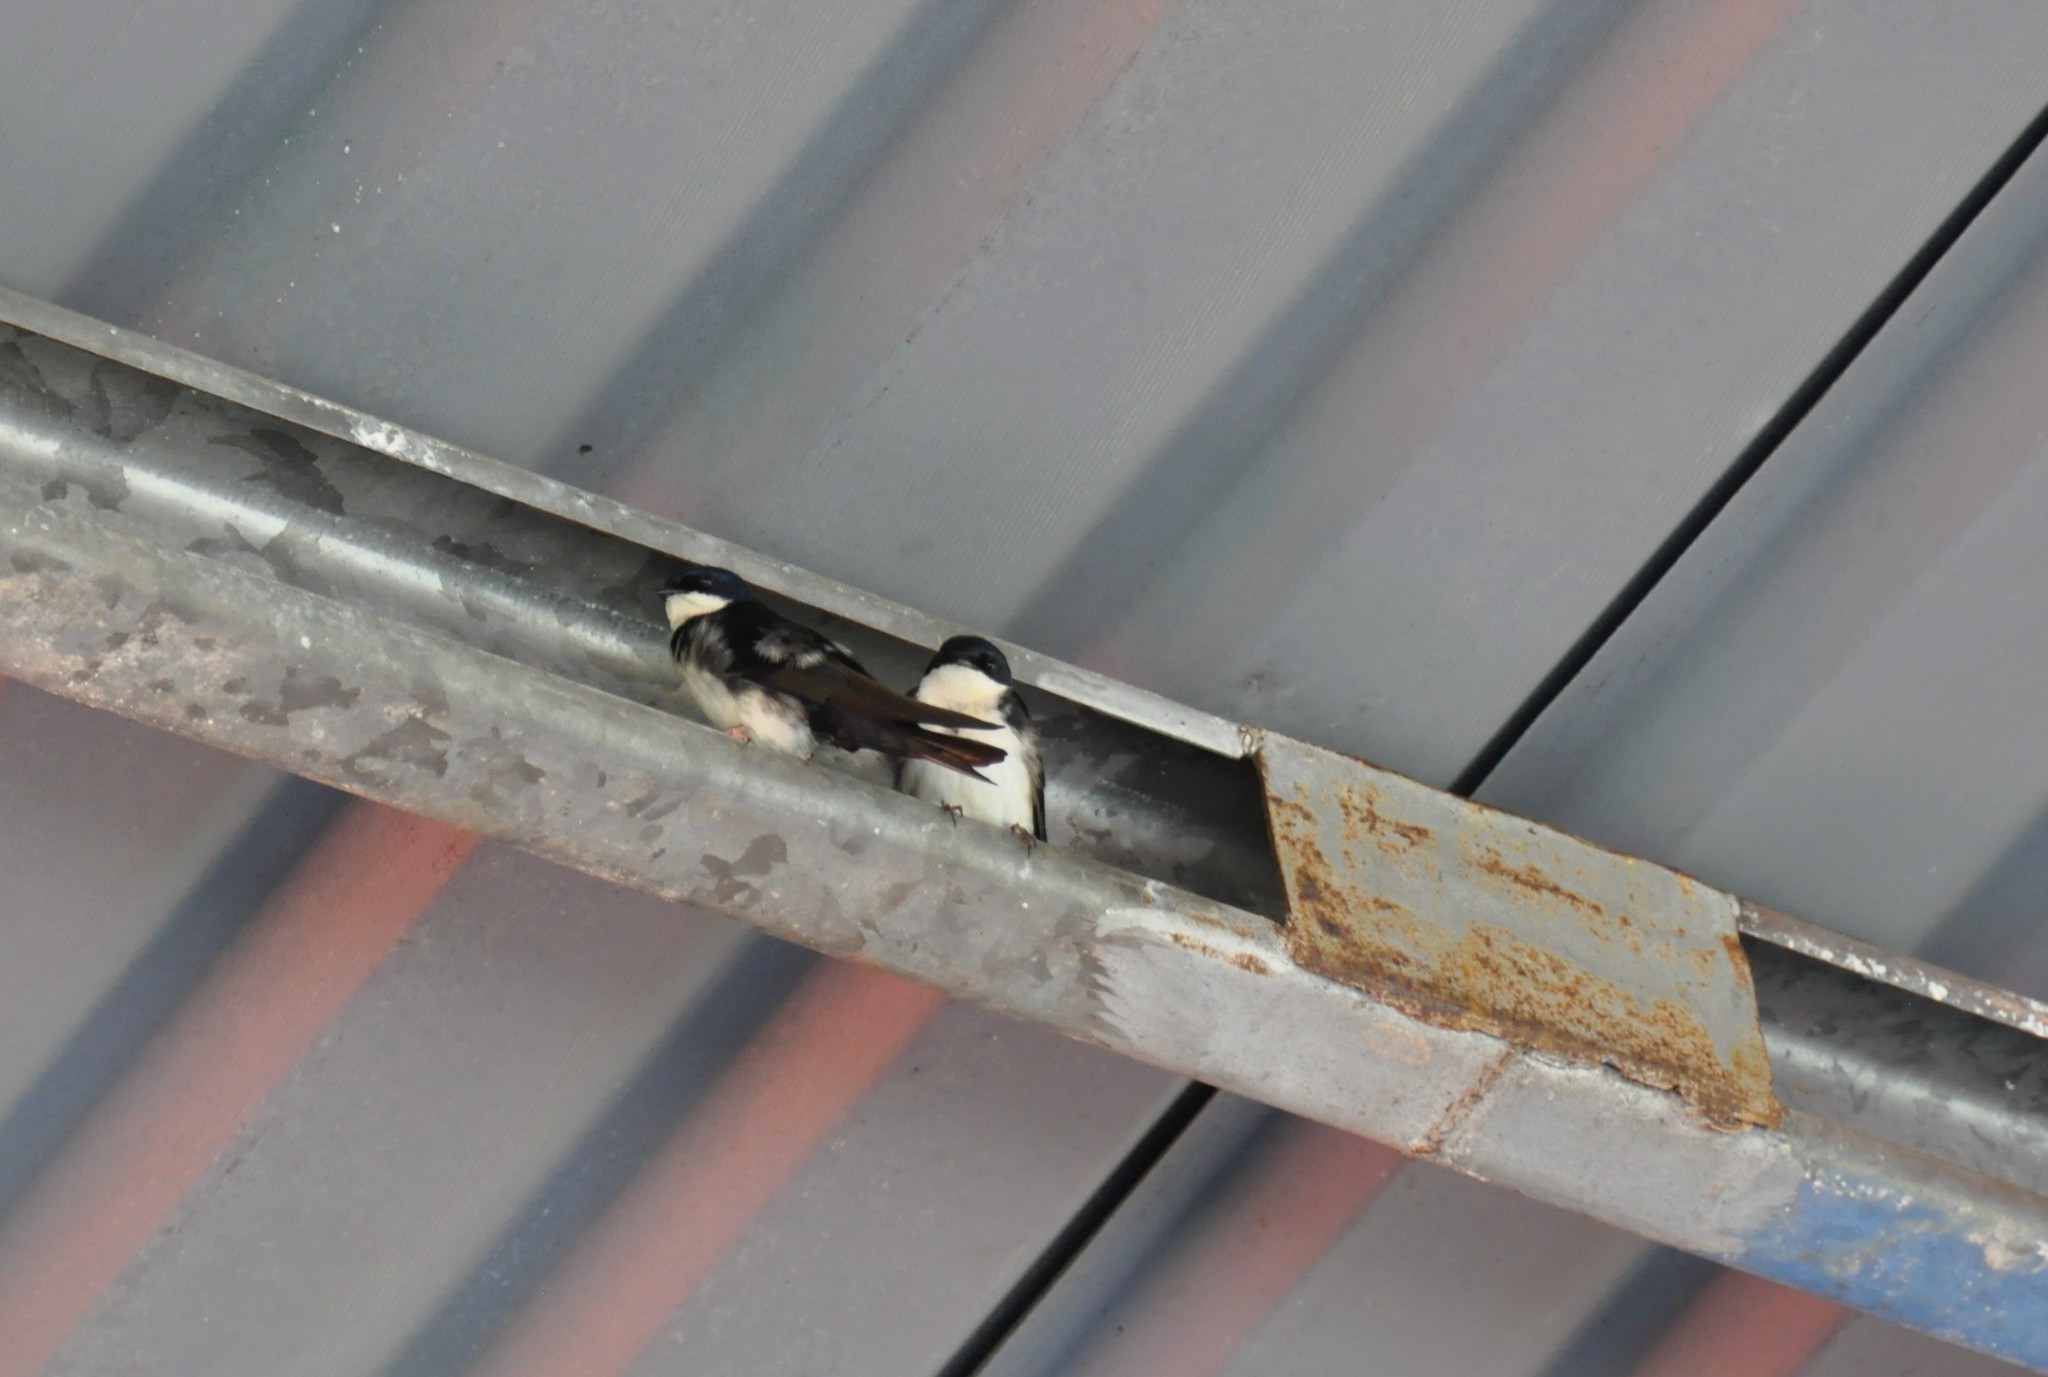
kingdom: Animalia
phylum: Chordata
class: Aves
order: Passeriformes
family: Hirundinidae
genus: Notiochelidon
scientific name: Notiochelidon cyanoleuca
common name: Blue-and-white swallow
